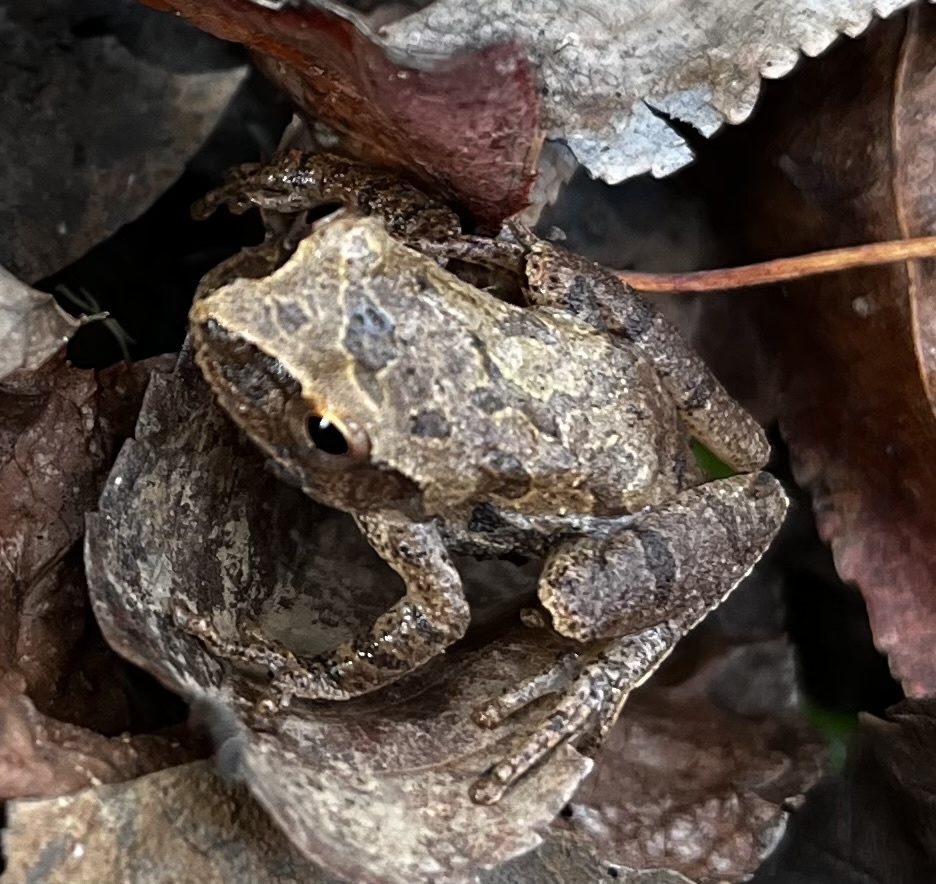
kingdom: Animalia
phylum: Chordata
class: Amphibia
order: Anura
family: Hylidae
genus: Pseudacris
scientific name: Pseudacris crucifer
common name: Spring peeper
